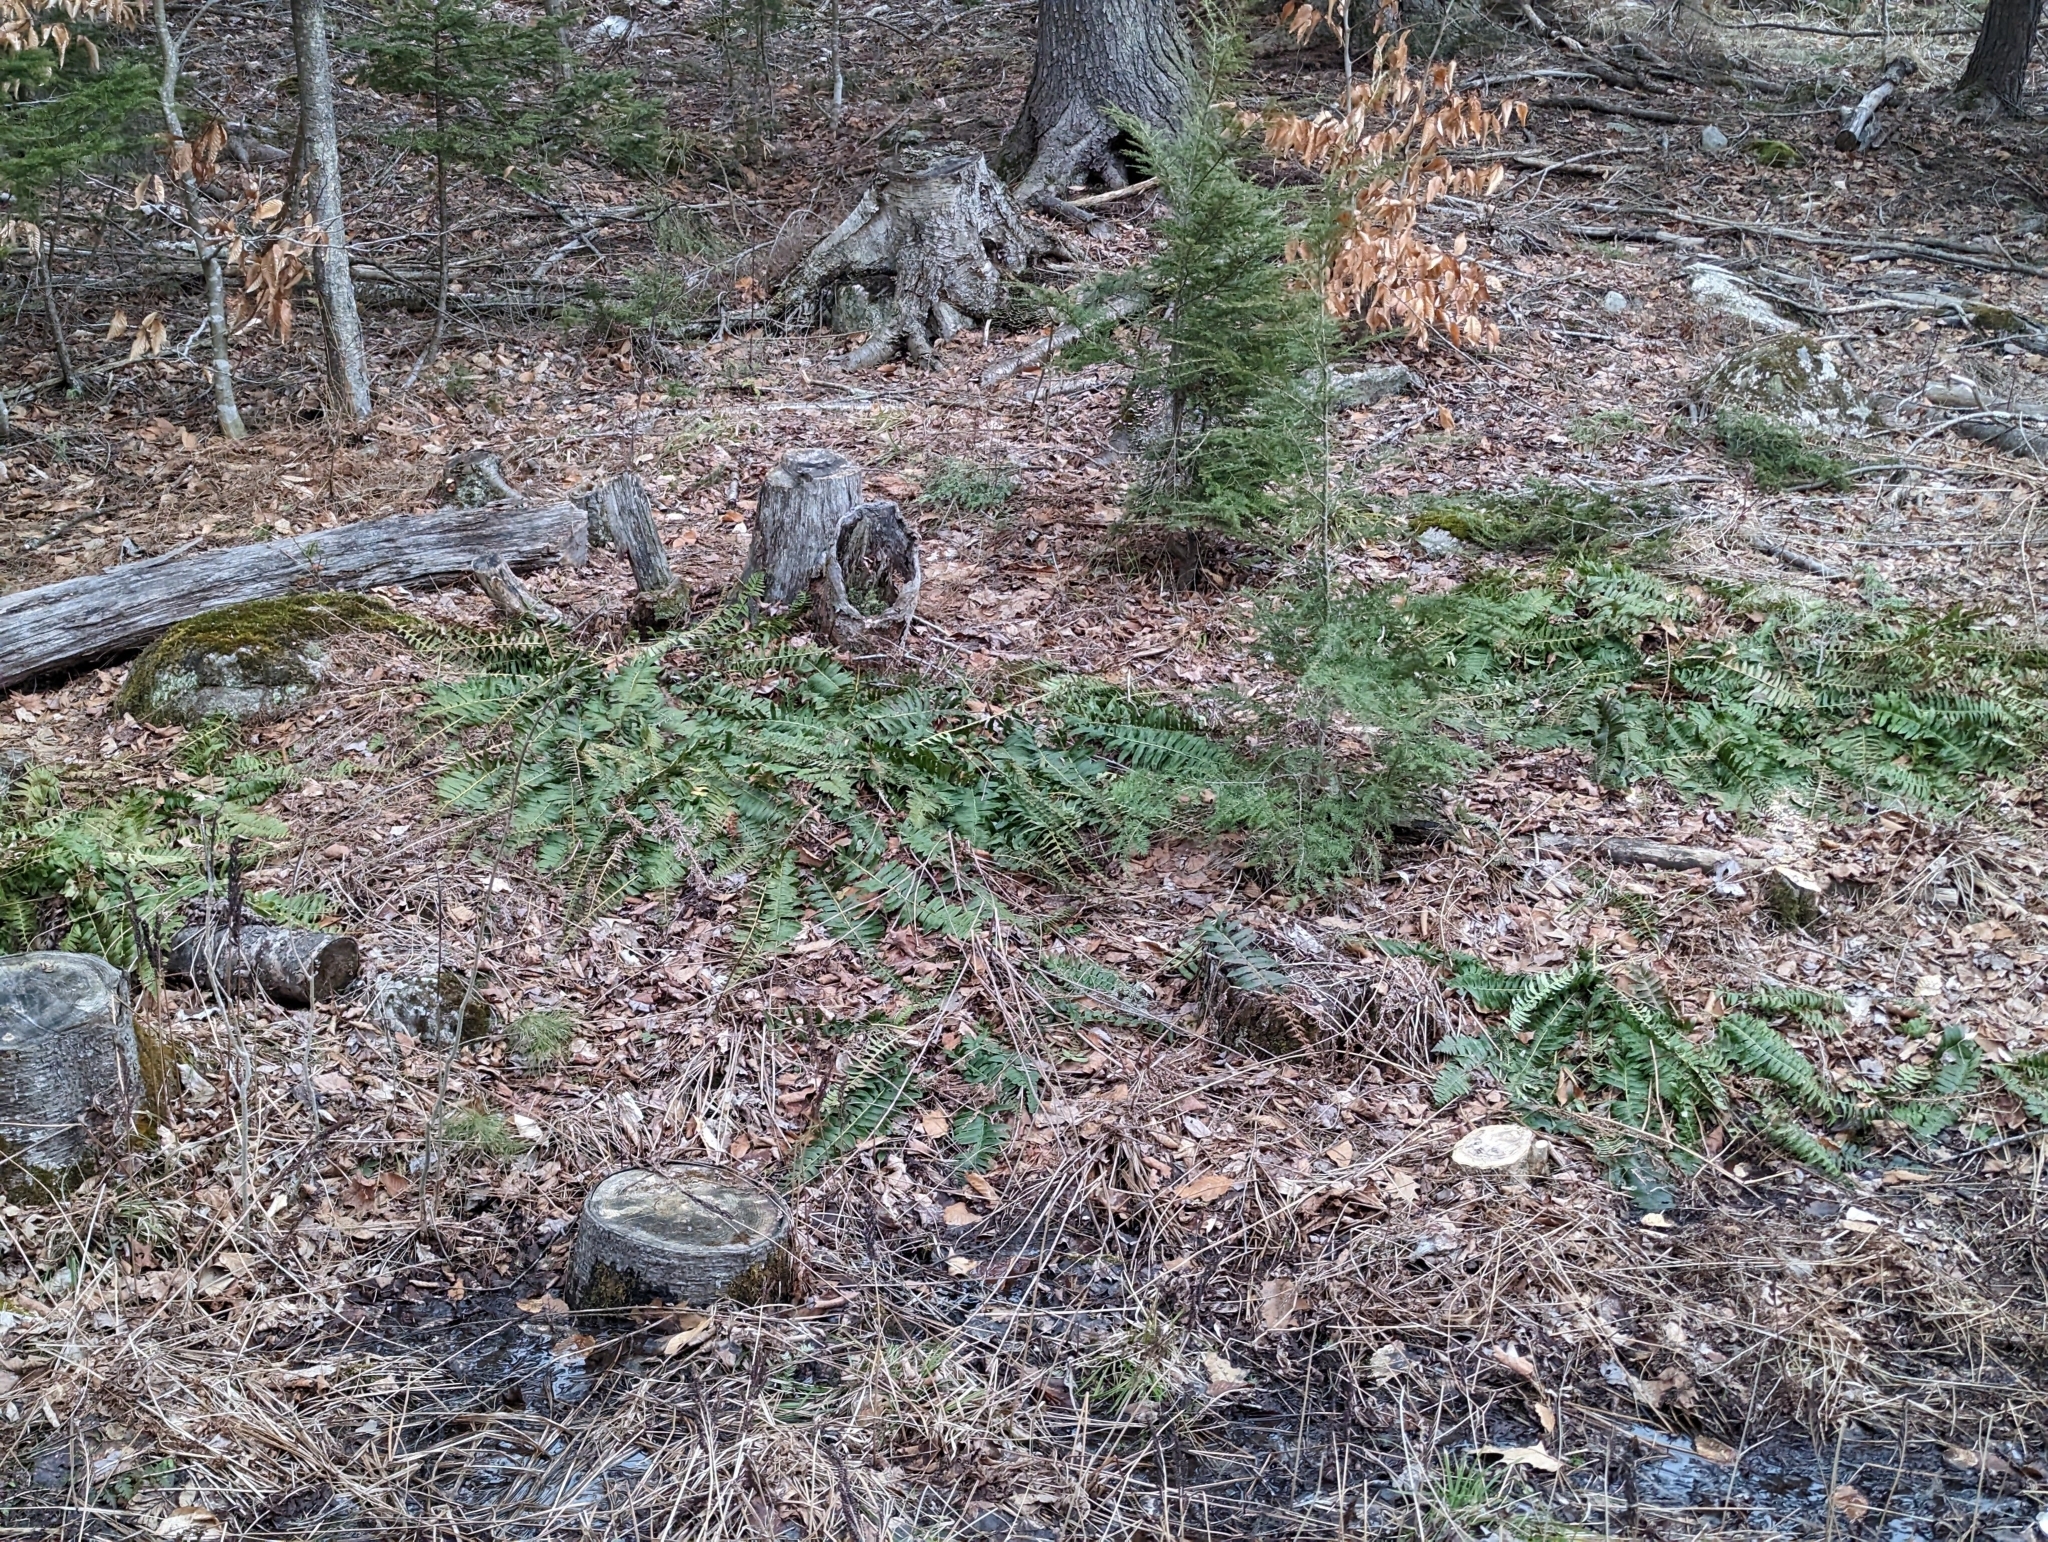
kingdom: Plantae
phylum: Tracheophyta
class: Polypodiopsida
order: Polypodiales
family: Dryopteridaceae
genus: Polystichum
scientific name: Polystichum acrostichoides
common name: Christmas fern
